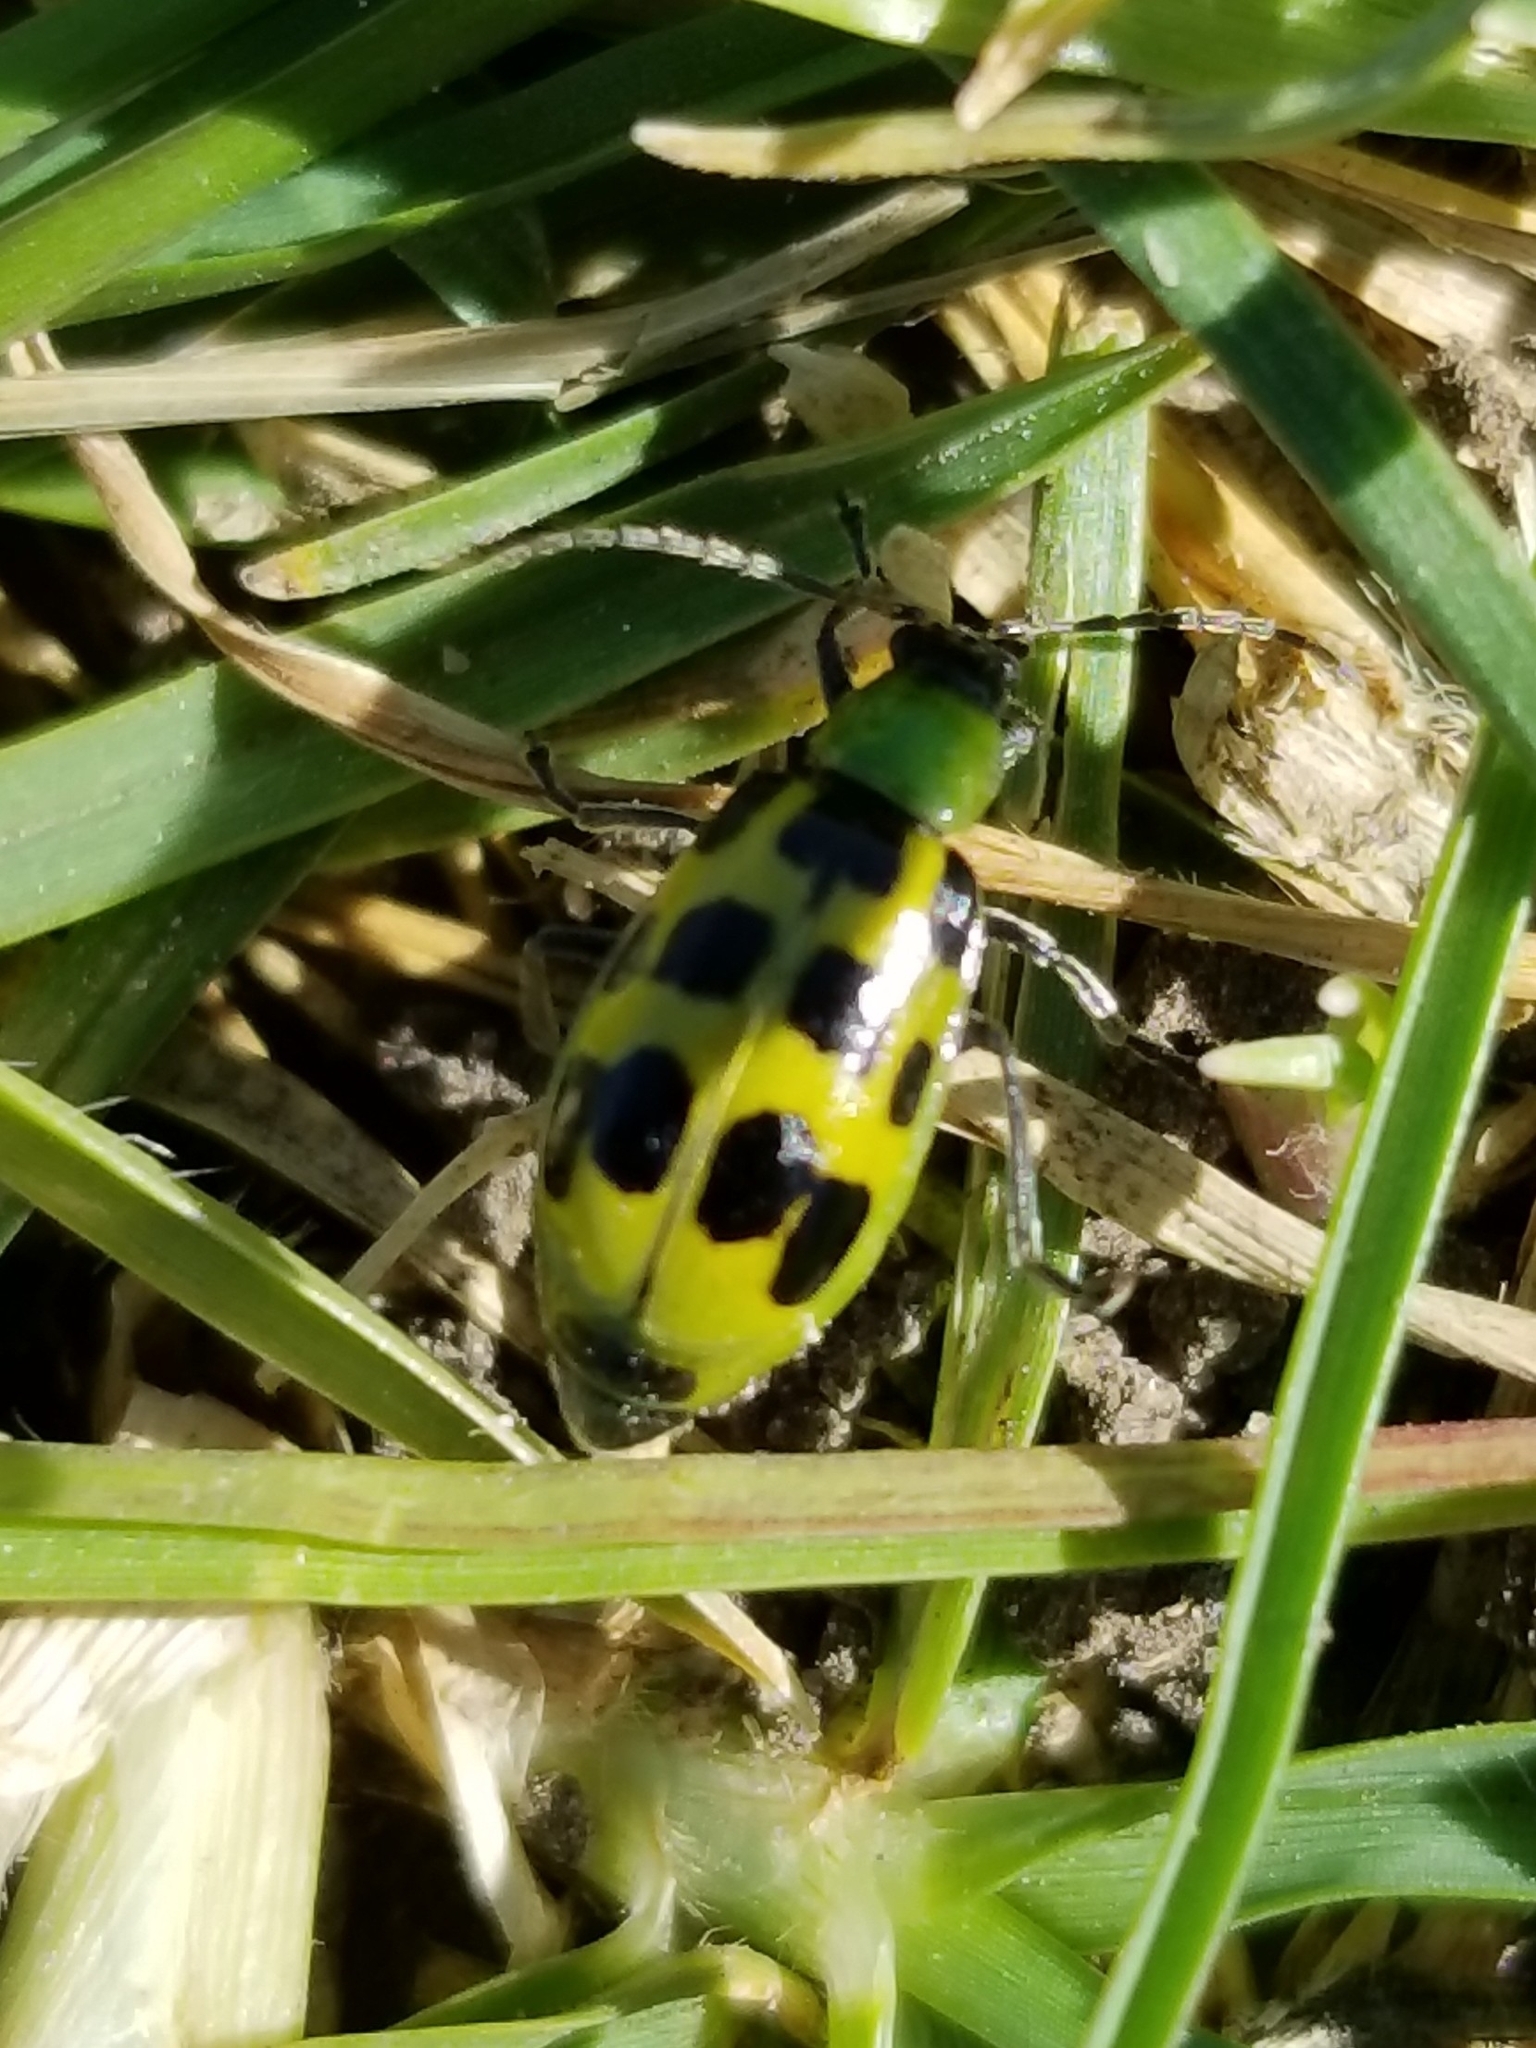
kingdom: Animalia
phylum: Arthropoda
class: Insecta
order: Coleoptera
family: Chrysomelidae
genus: Diabrotica
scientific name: Diabrotica undecimpunctata
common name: Spotted cucumber beetle
